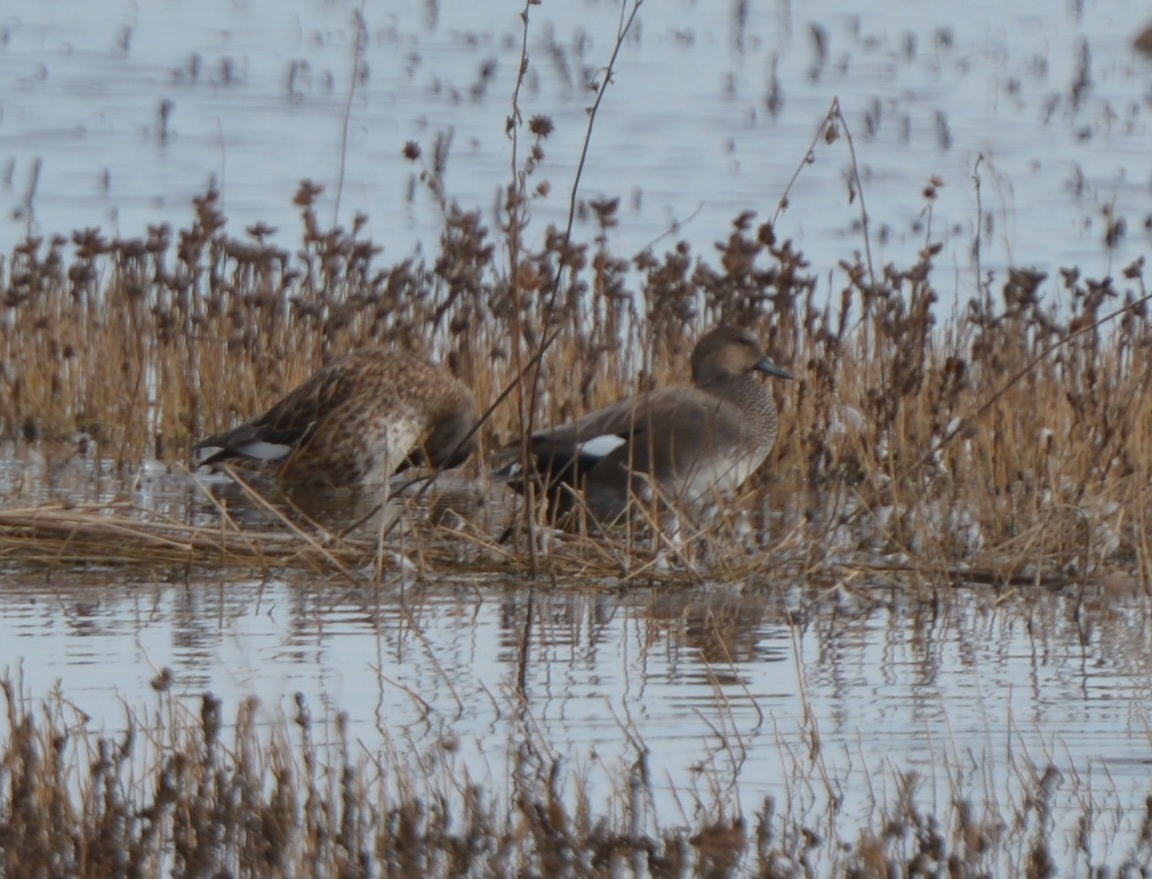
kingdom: Animalia
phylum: Chordata
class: Aves
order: Anseriformes
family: Anatidae
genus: Mareca
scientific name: Mareca strepera
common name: Gadwall
